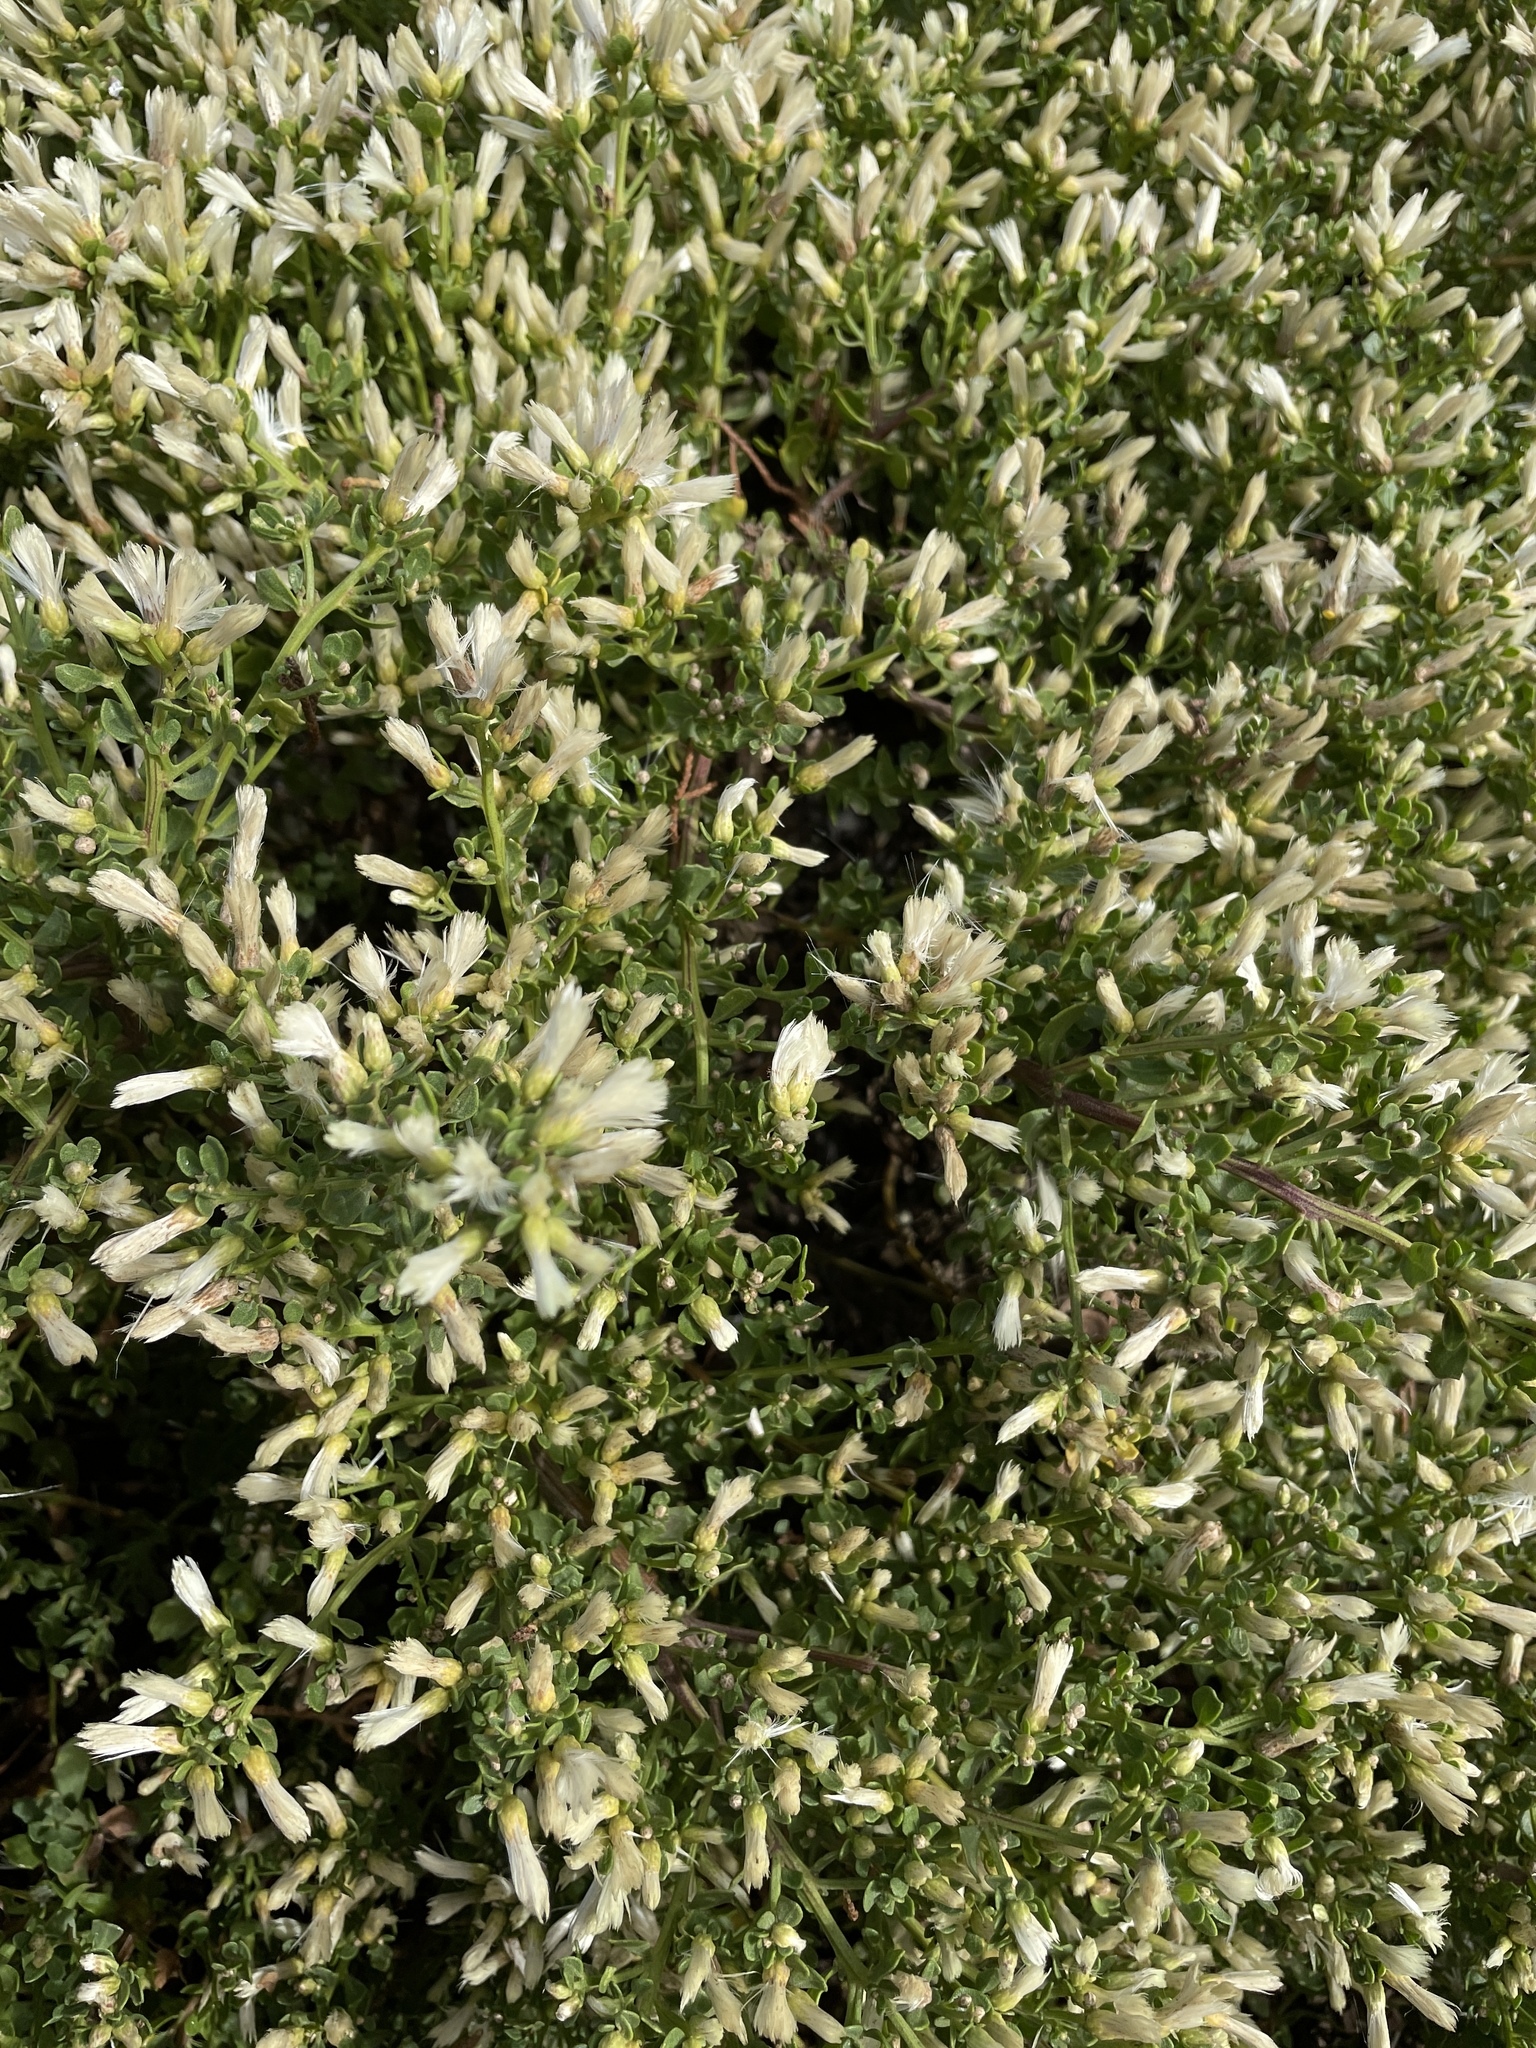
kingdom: Plantae
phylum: Tracheophyta
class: Magnoliopsida
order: Asterales
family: Asteraceae
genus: Baccharis
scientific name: Baccharis pilularis
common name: Coyotebrush
